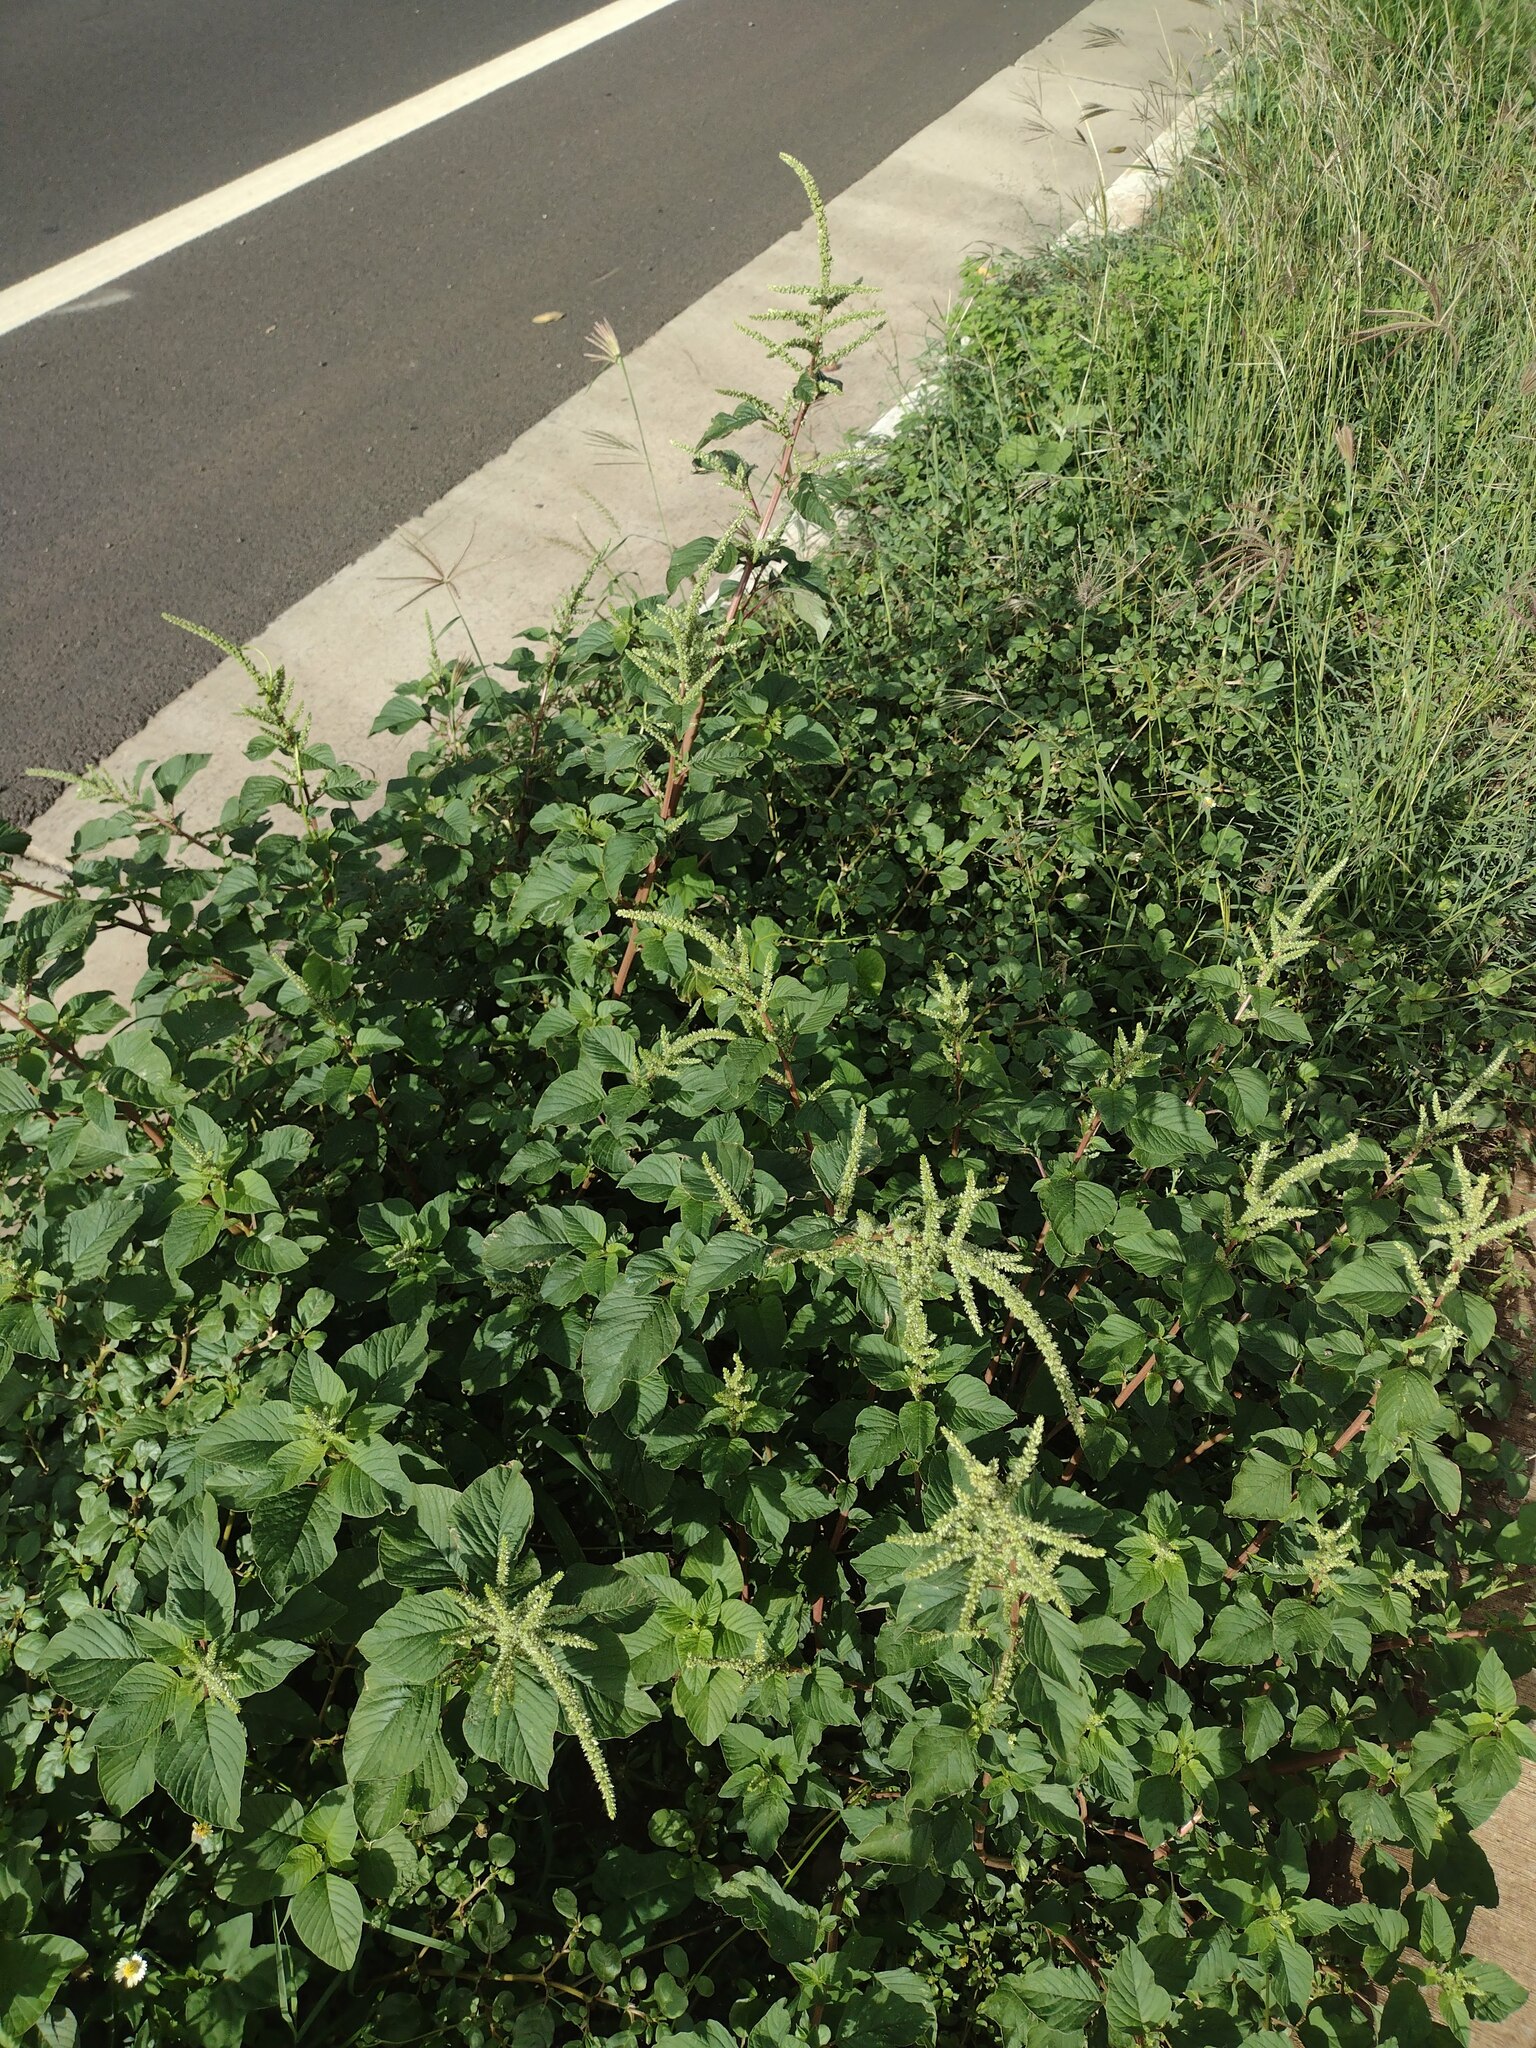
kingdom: Plantae
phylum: Tracheophyta
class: Magnoliopsida
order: Caryophyllales
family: Amaranthaceae
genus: Amaranthus
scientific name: Amaranthus retroflexus
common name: Redroot amaranth
